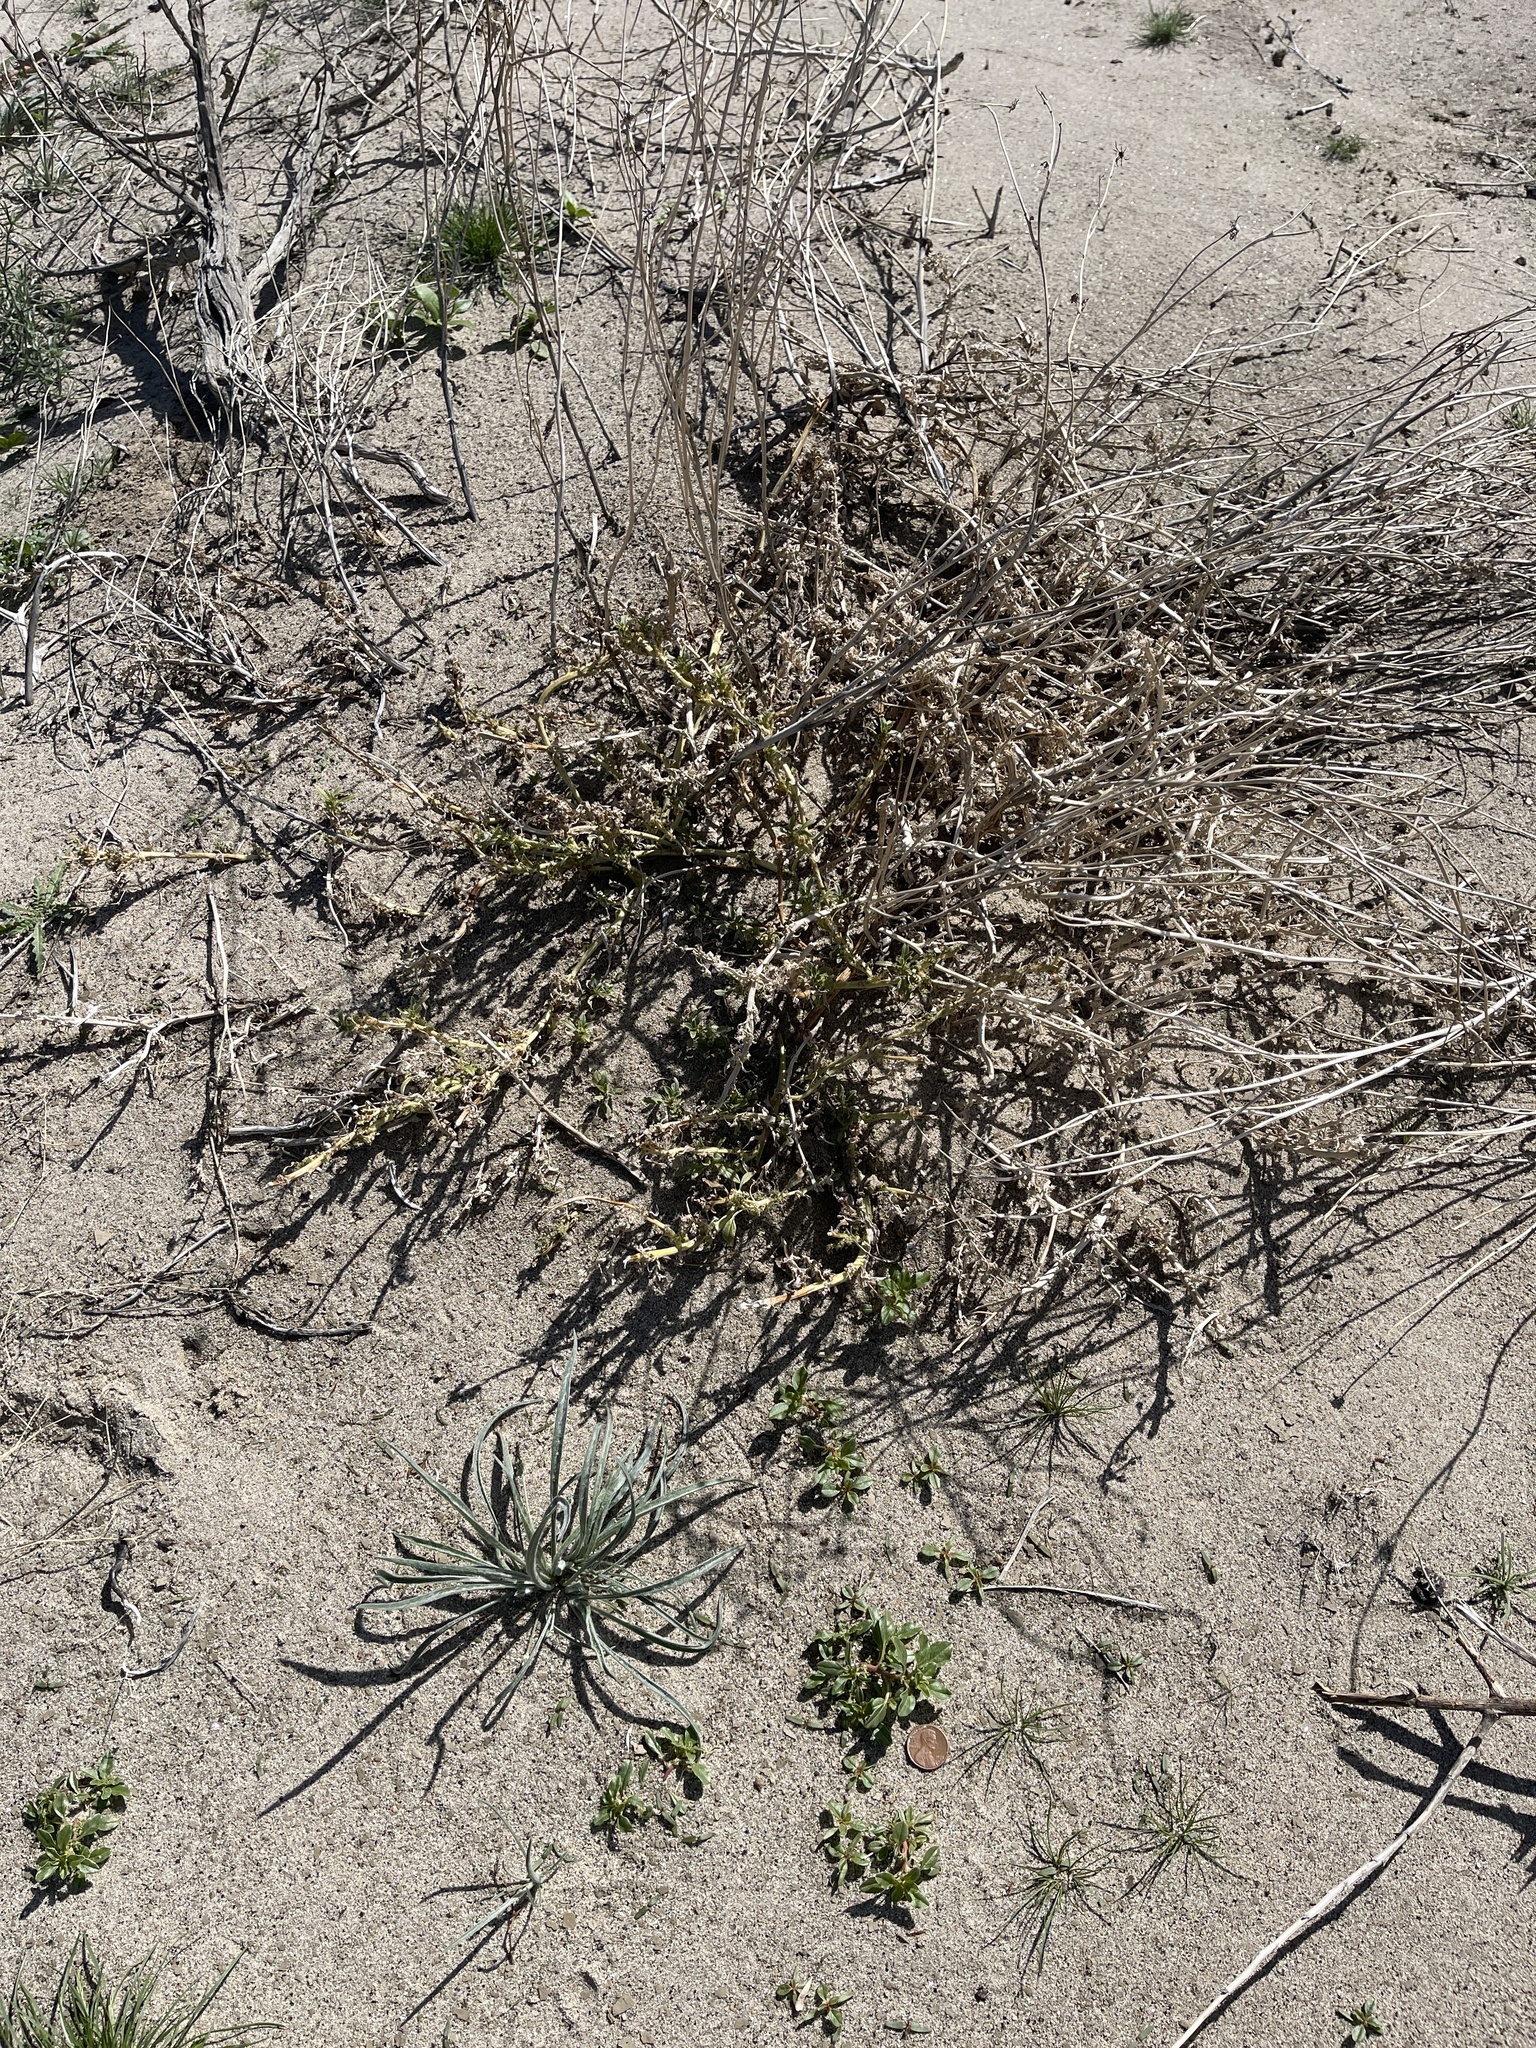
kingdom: Plantae
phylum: Tracheophyta
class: Magnoliopsida
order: Caryophyllales
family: Amaranthaceae
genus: Amaranthus
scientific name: Amaranthus blitoides
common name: Prostrate pigweed
